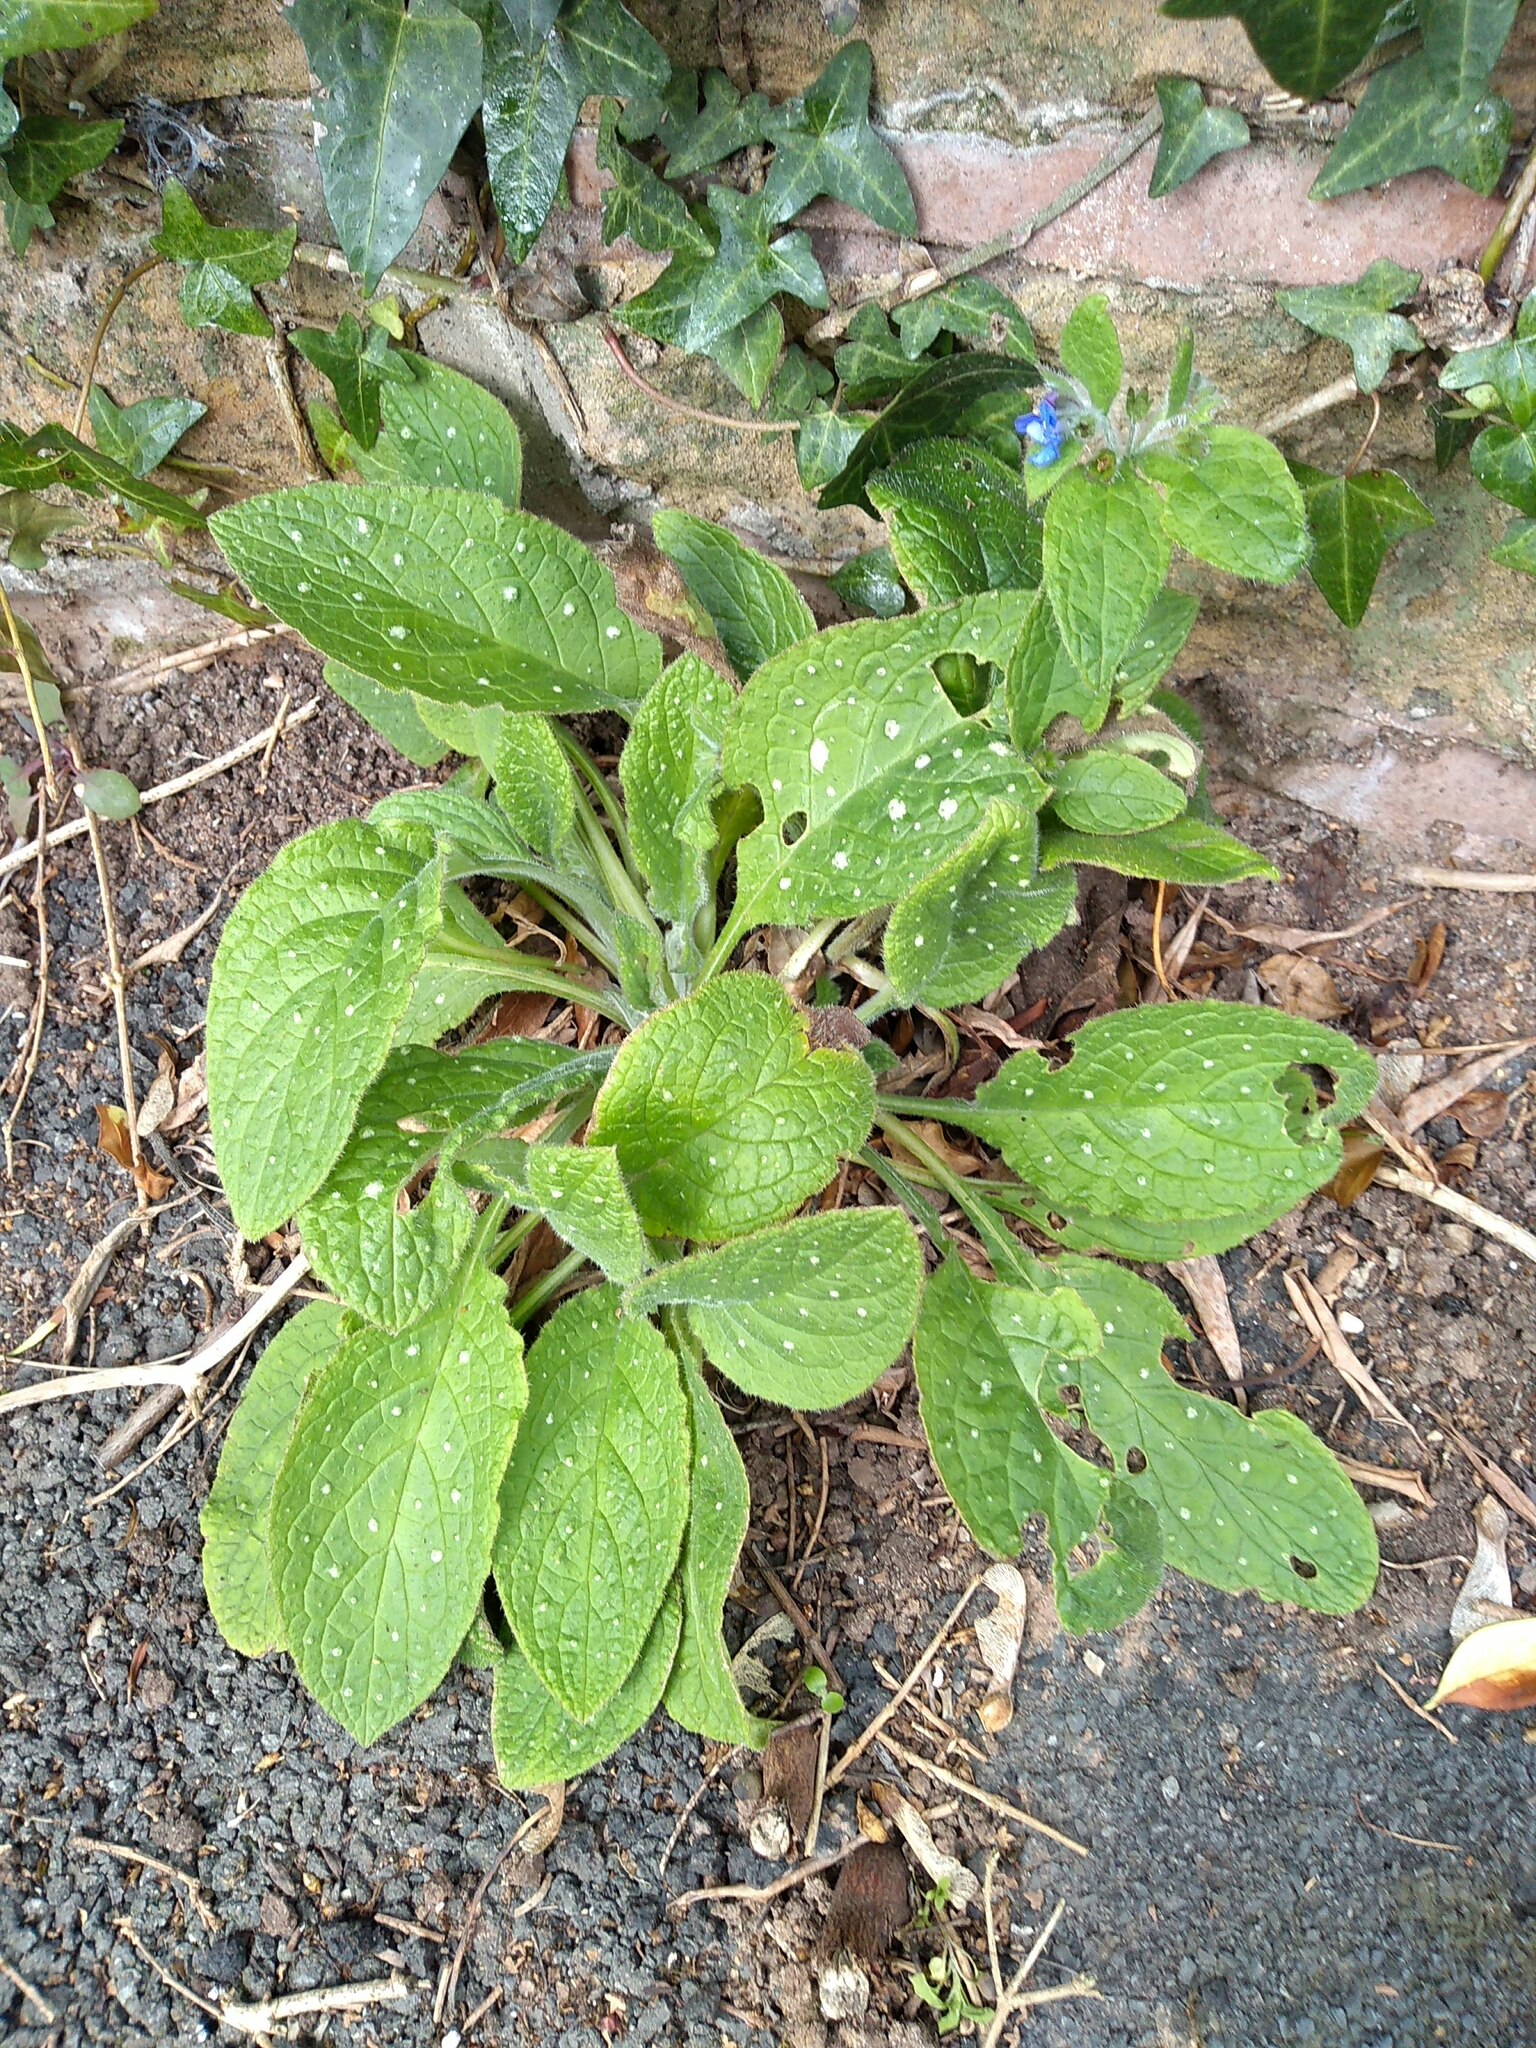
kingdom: Plantae
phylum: Tracheophyta
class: Magnoliopsida
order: Boraginales
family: Boraginaceae
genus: Pentaglottis
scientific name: Pentaglottis sempervirens
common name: Green alkanet
